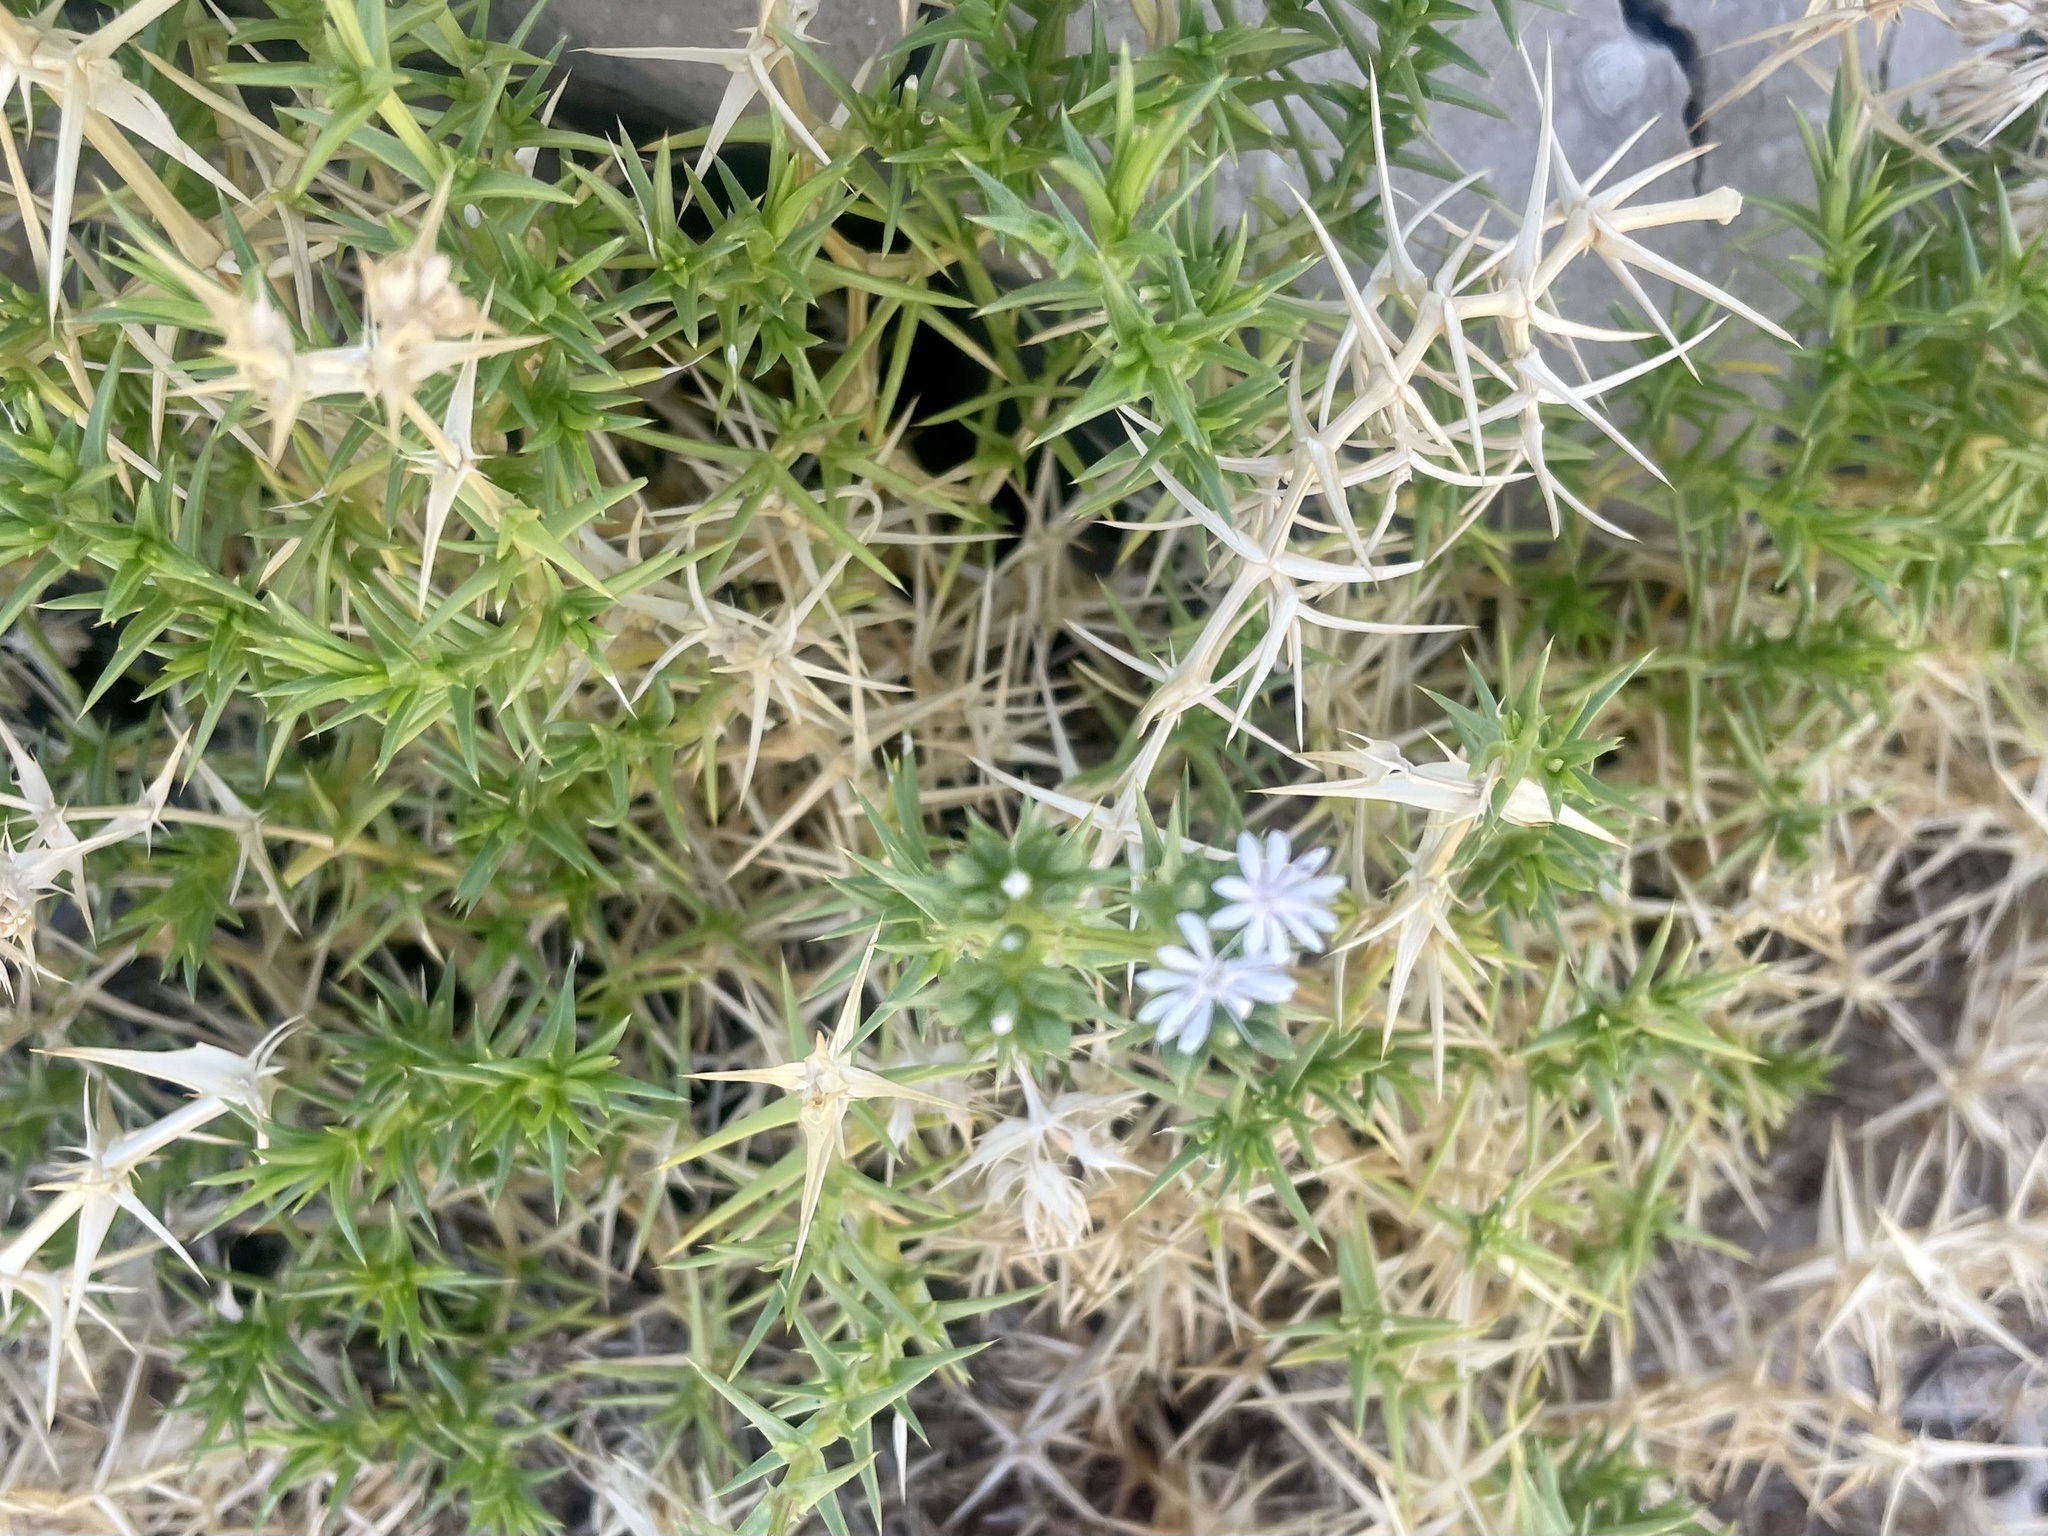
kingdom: Plantae
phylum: Tracheophyta
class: Magnoliopsida
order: Caryophyllales
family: Caryophyllaceae
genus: Drypis
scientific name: Drypis spinosa
